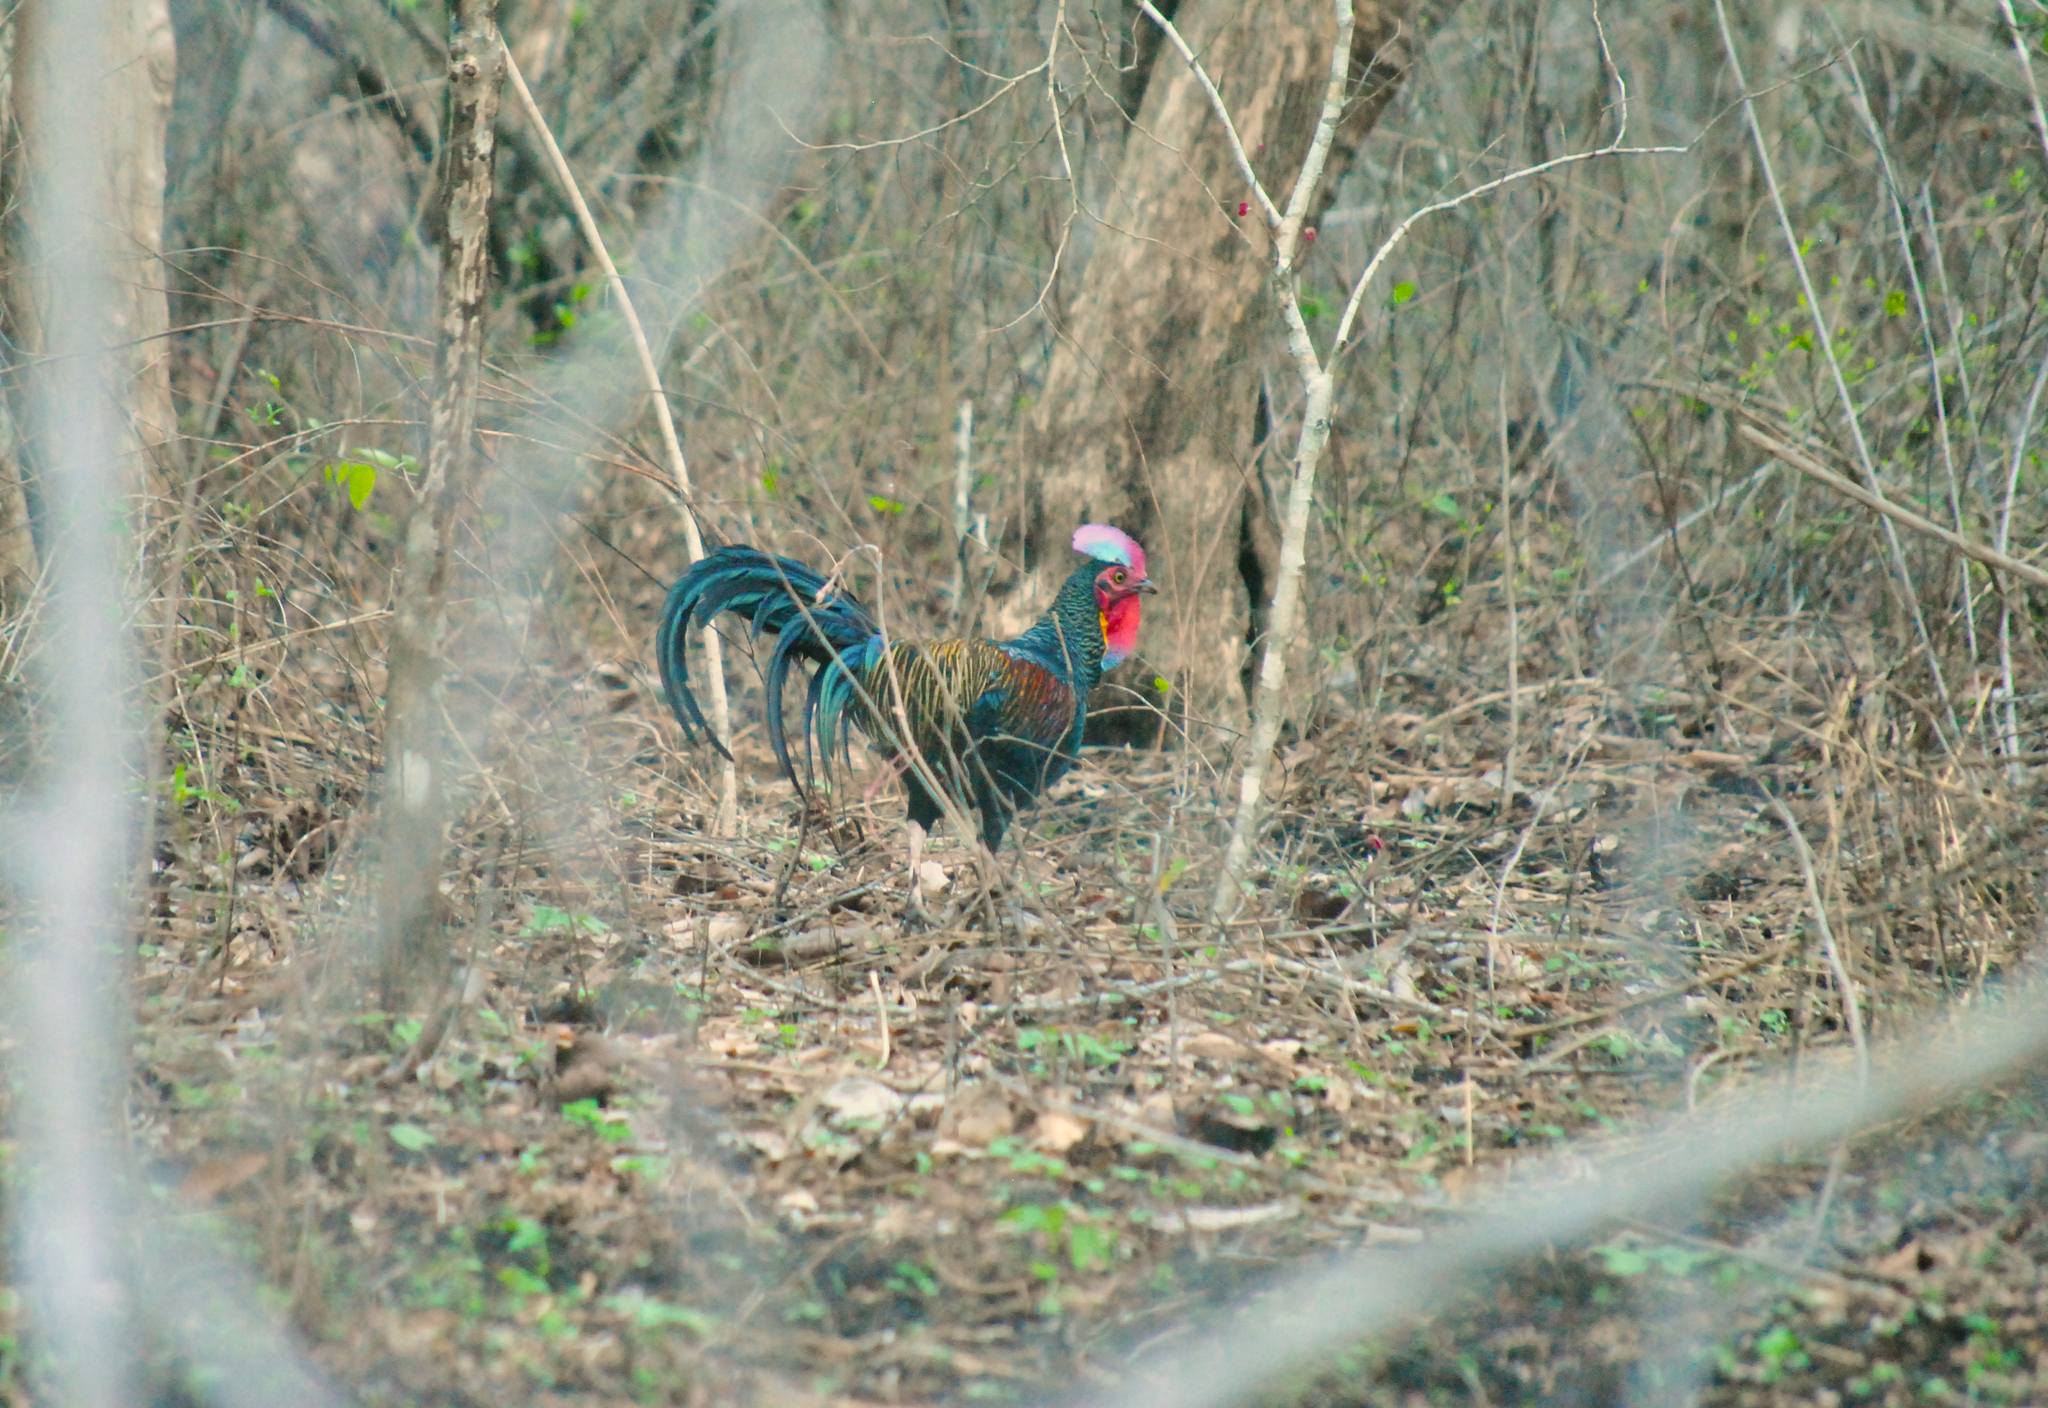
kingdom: Animalia
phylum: Chordata
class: Aves
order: Galliformes
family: Phasianidae
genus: Gallus
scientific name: Gallus varius
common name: Green junglefowl
